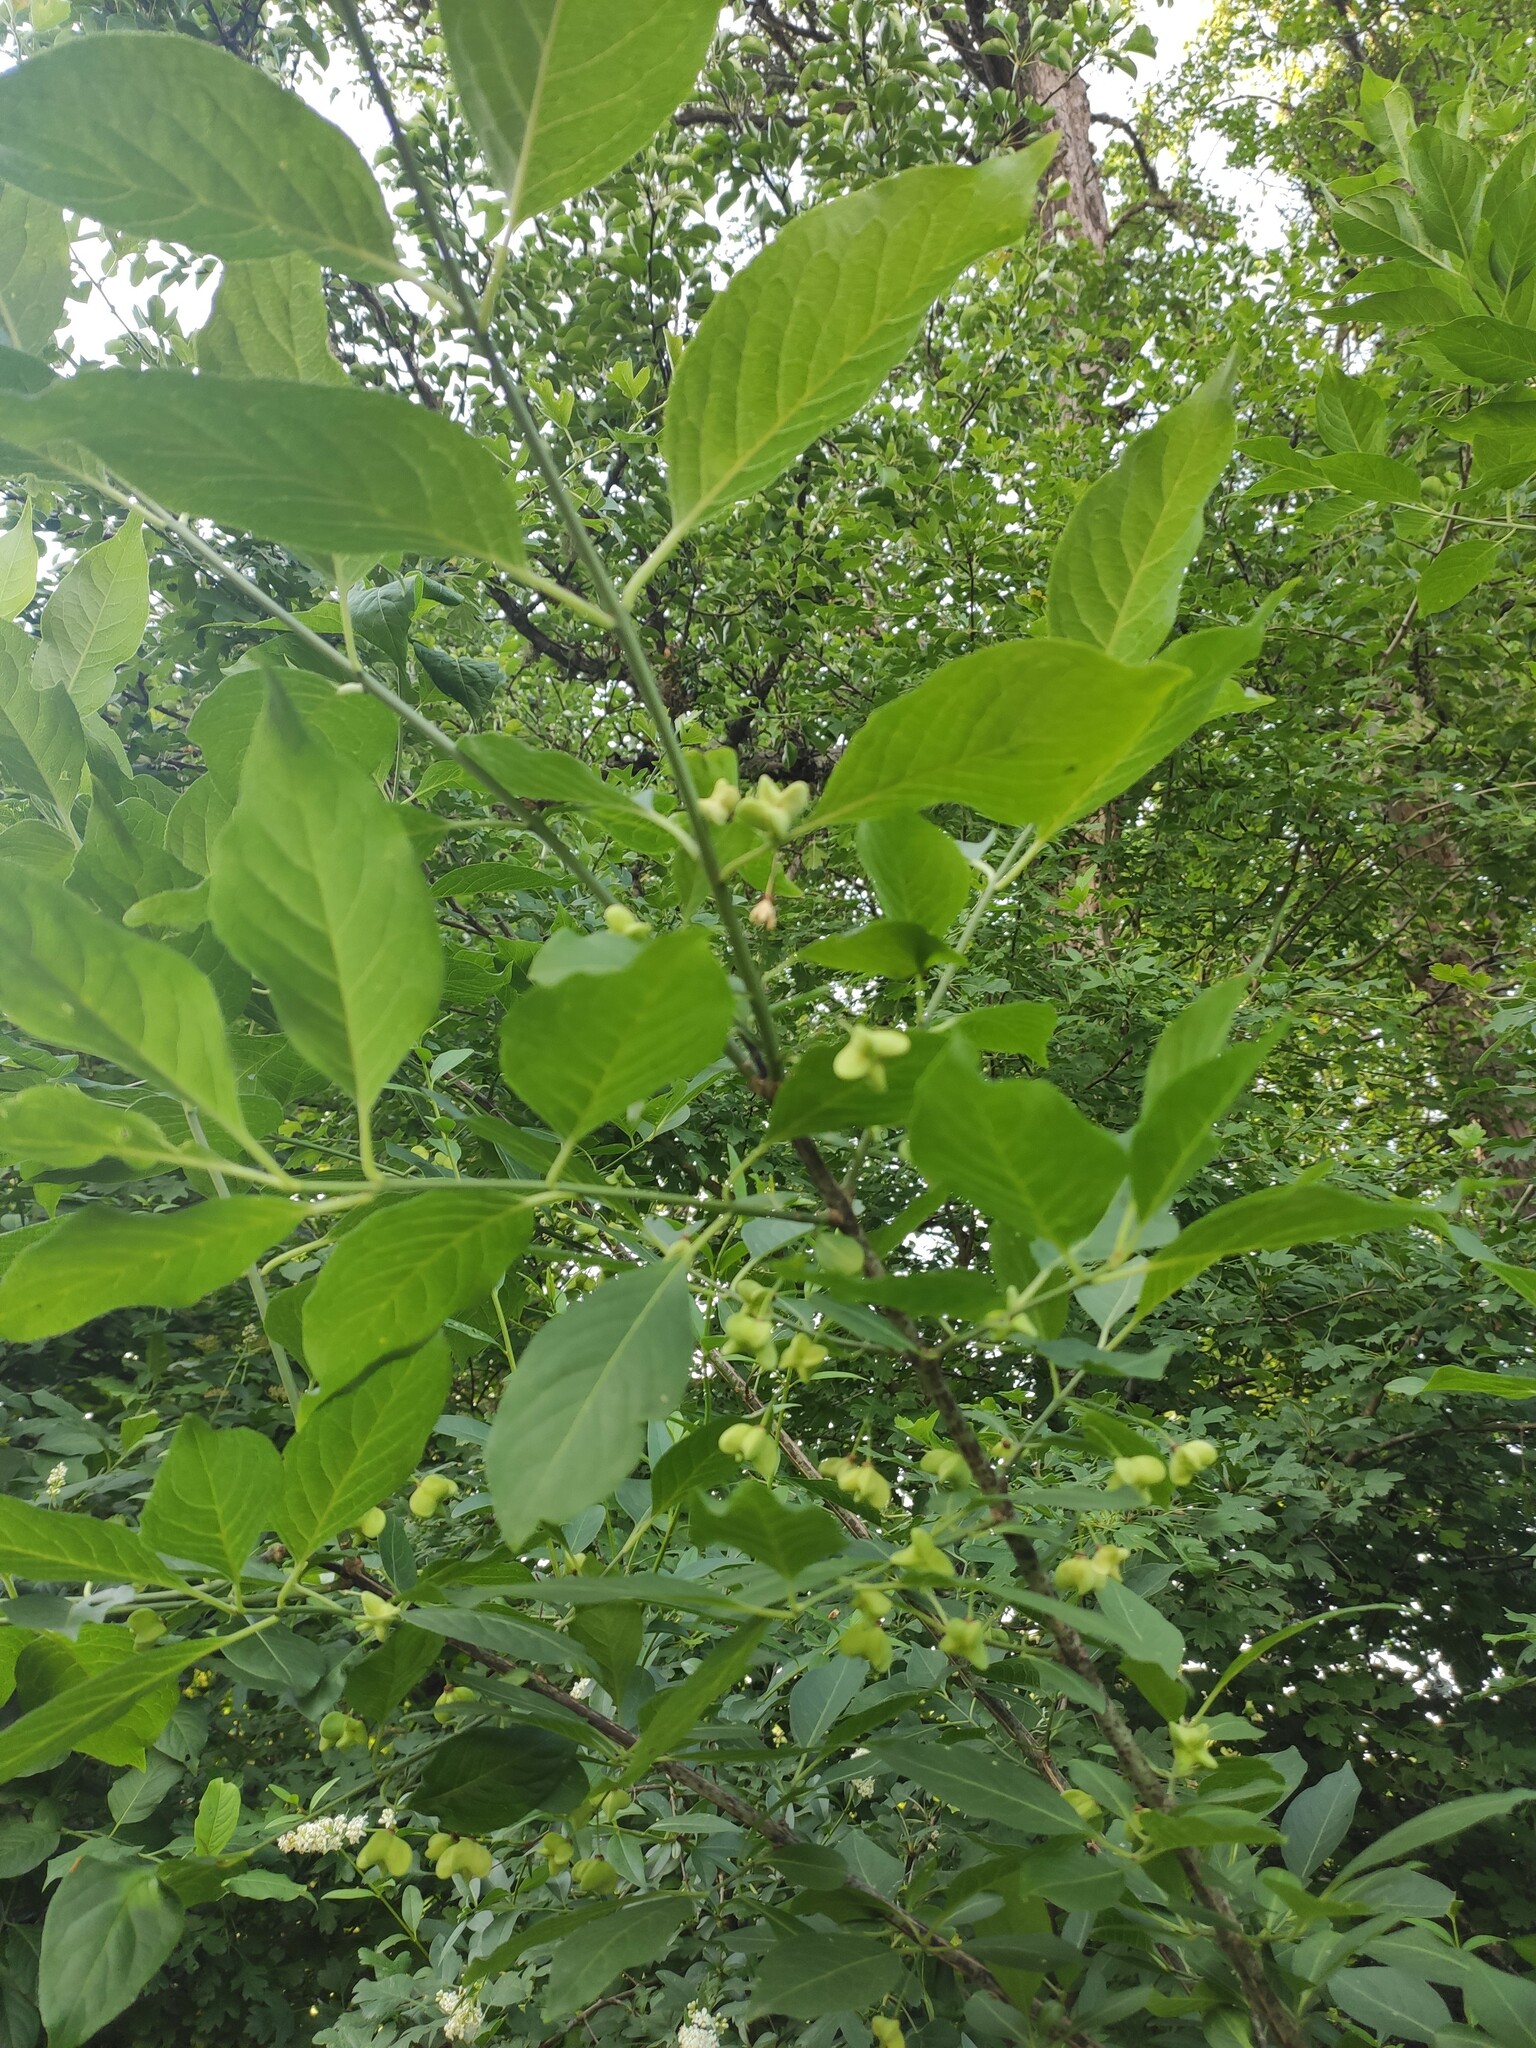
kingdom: Plantae
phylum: Tracheophyta
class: Magnoliopsida
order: Celastrales
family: Celastraceae
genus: Euonymus
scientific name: Euonymus europaeus
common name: Spindle
